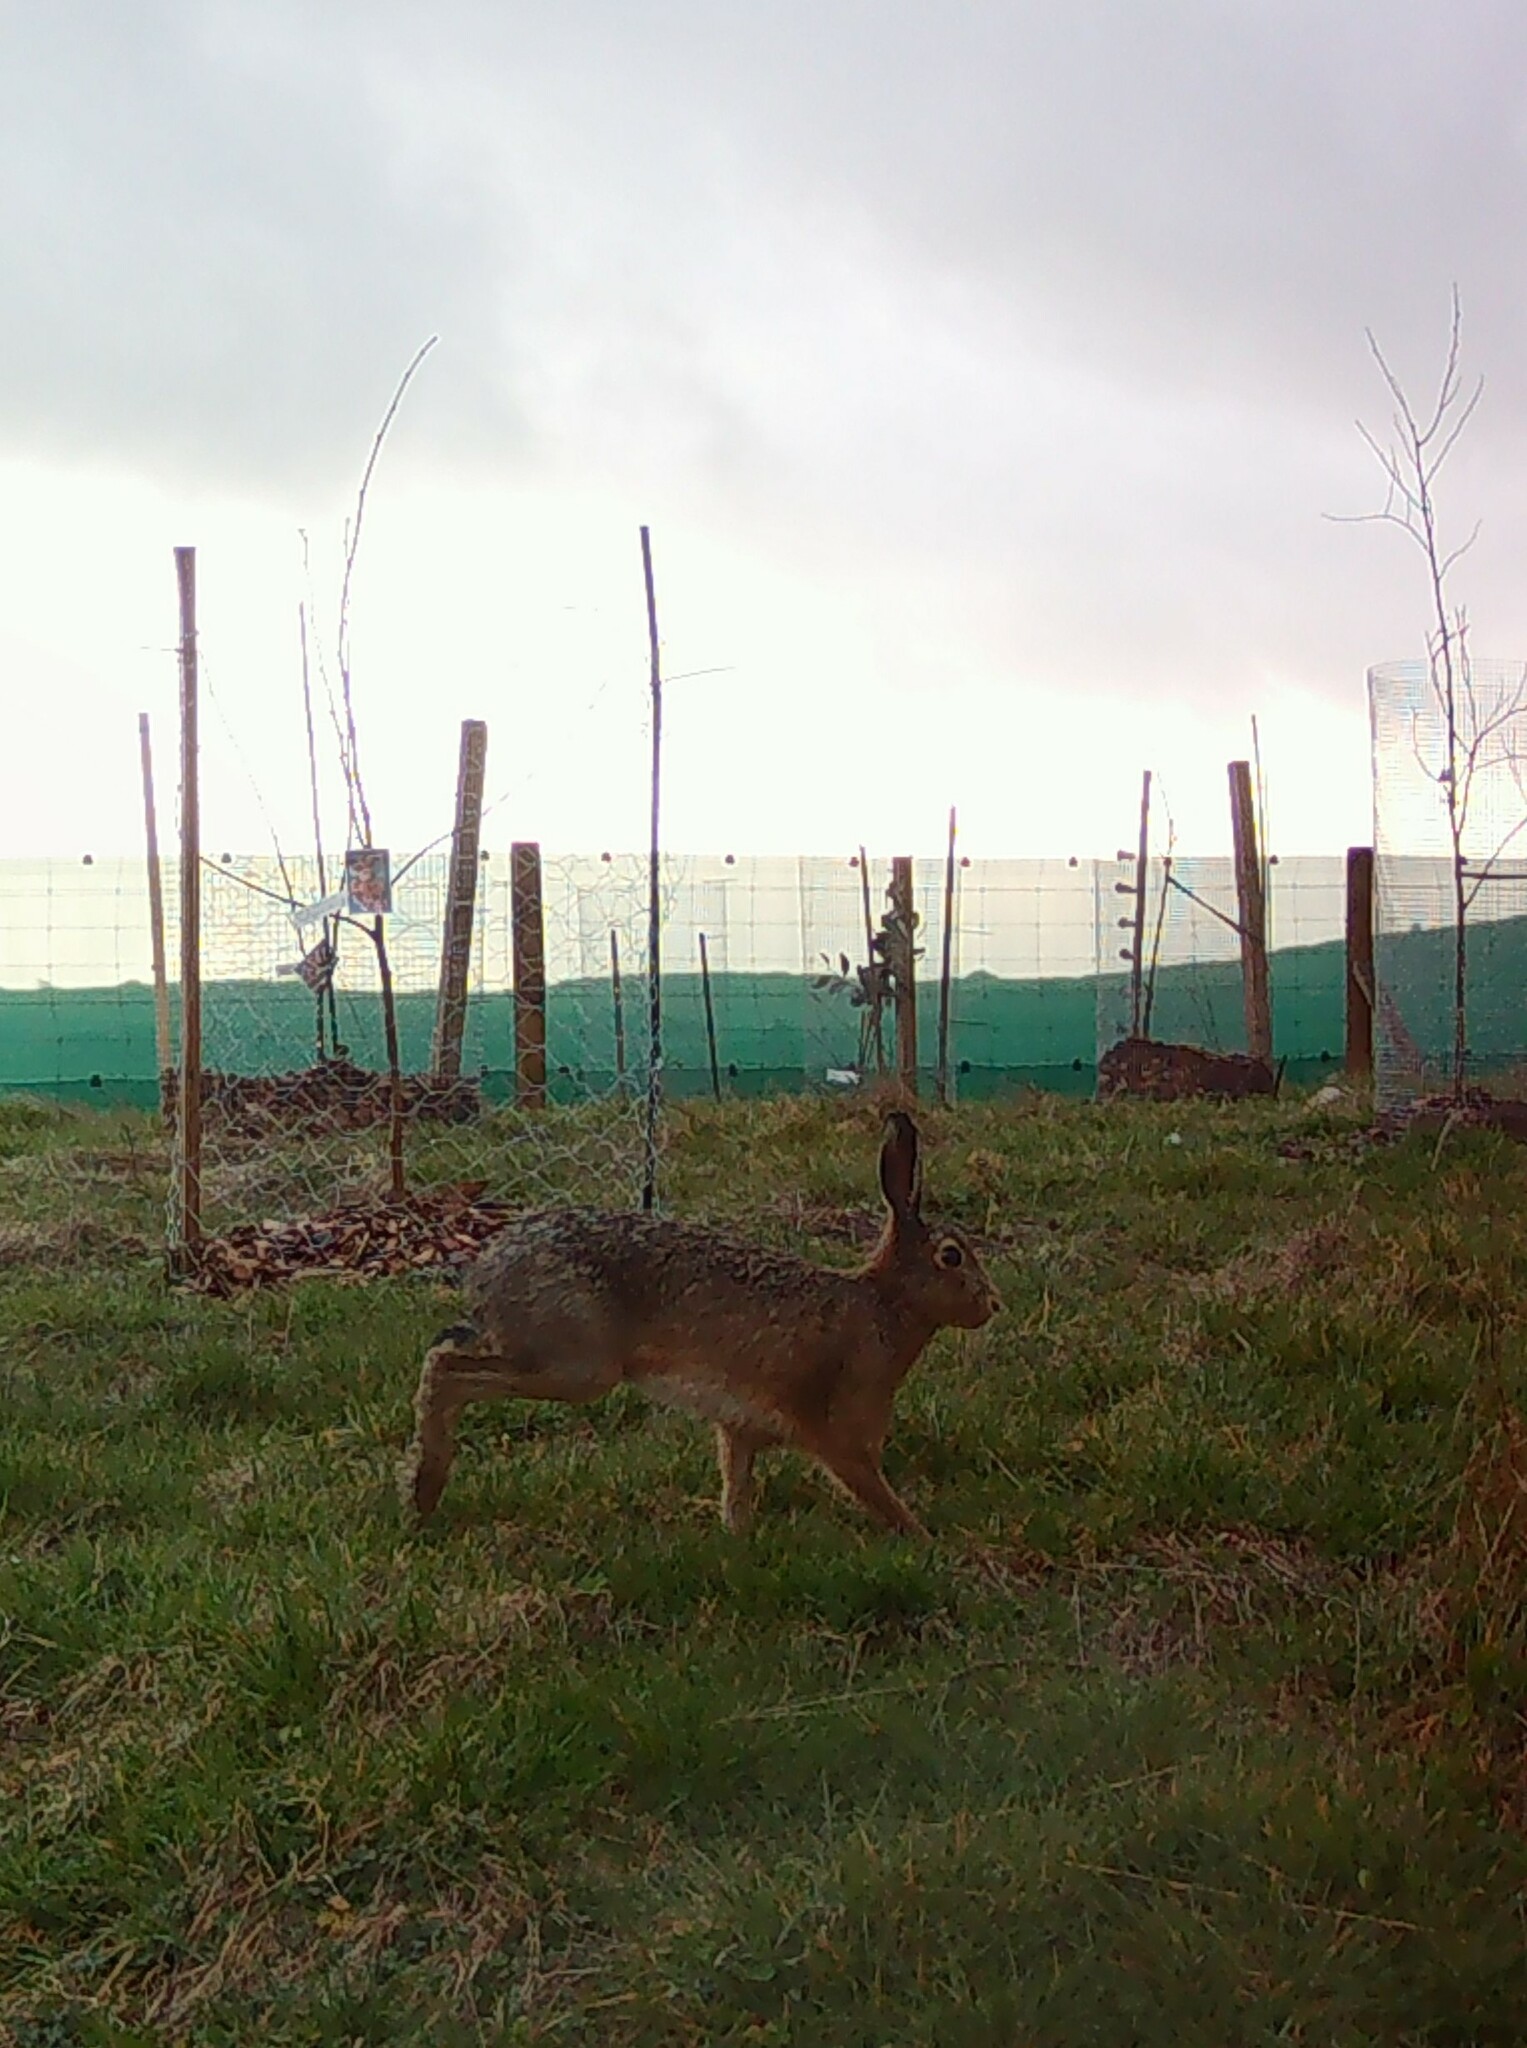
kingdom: Animalia
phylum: Chordata
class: Mammalia
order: Lagomorpha
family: Leporidae
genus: Lepus
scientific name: Lepus europaeus
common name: European hare
